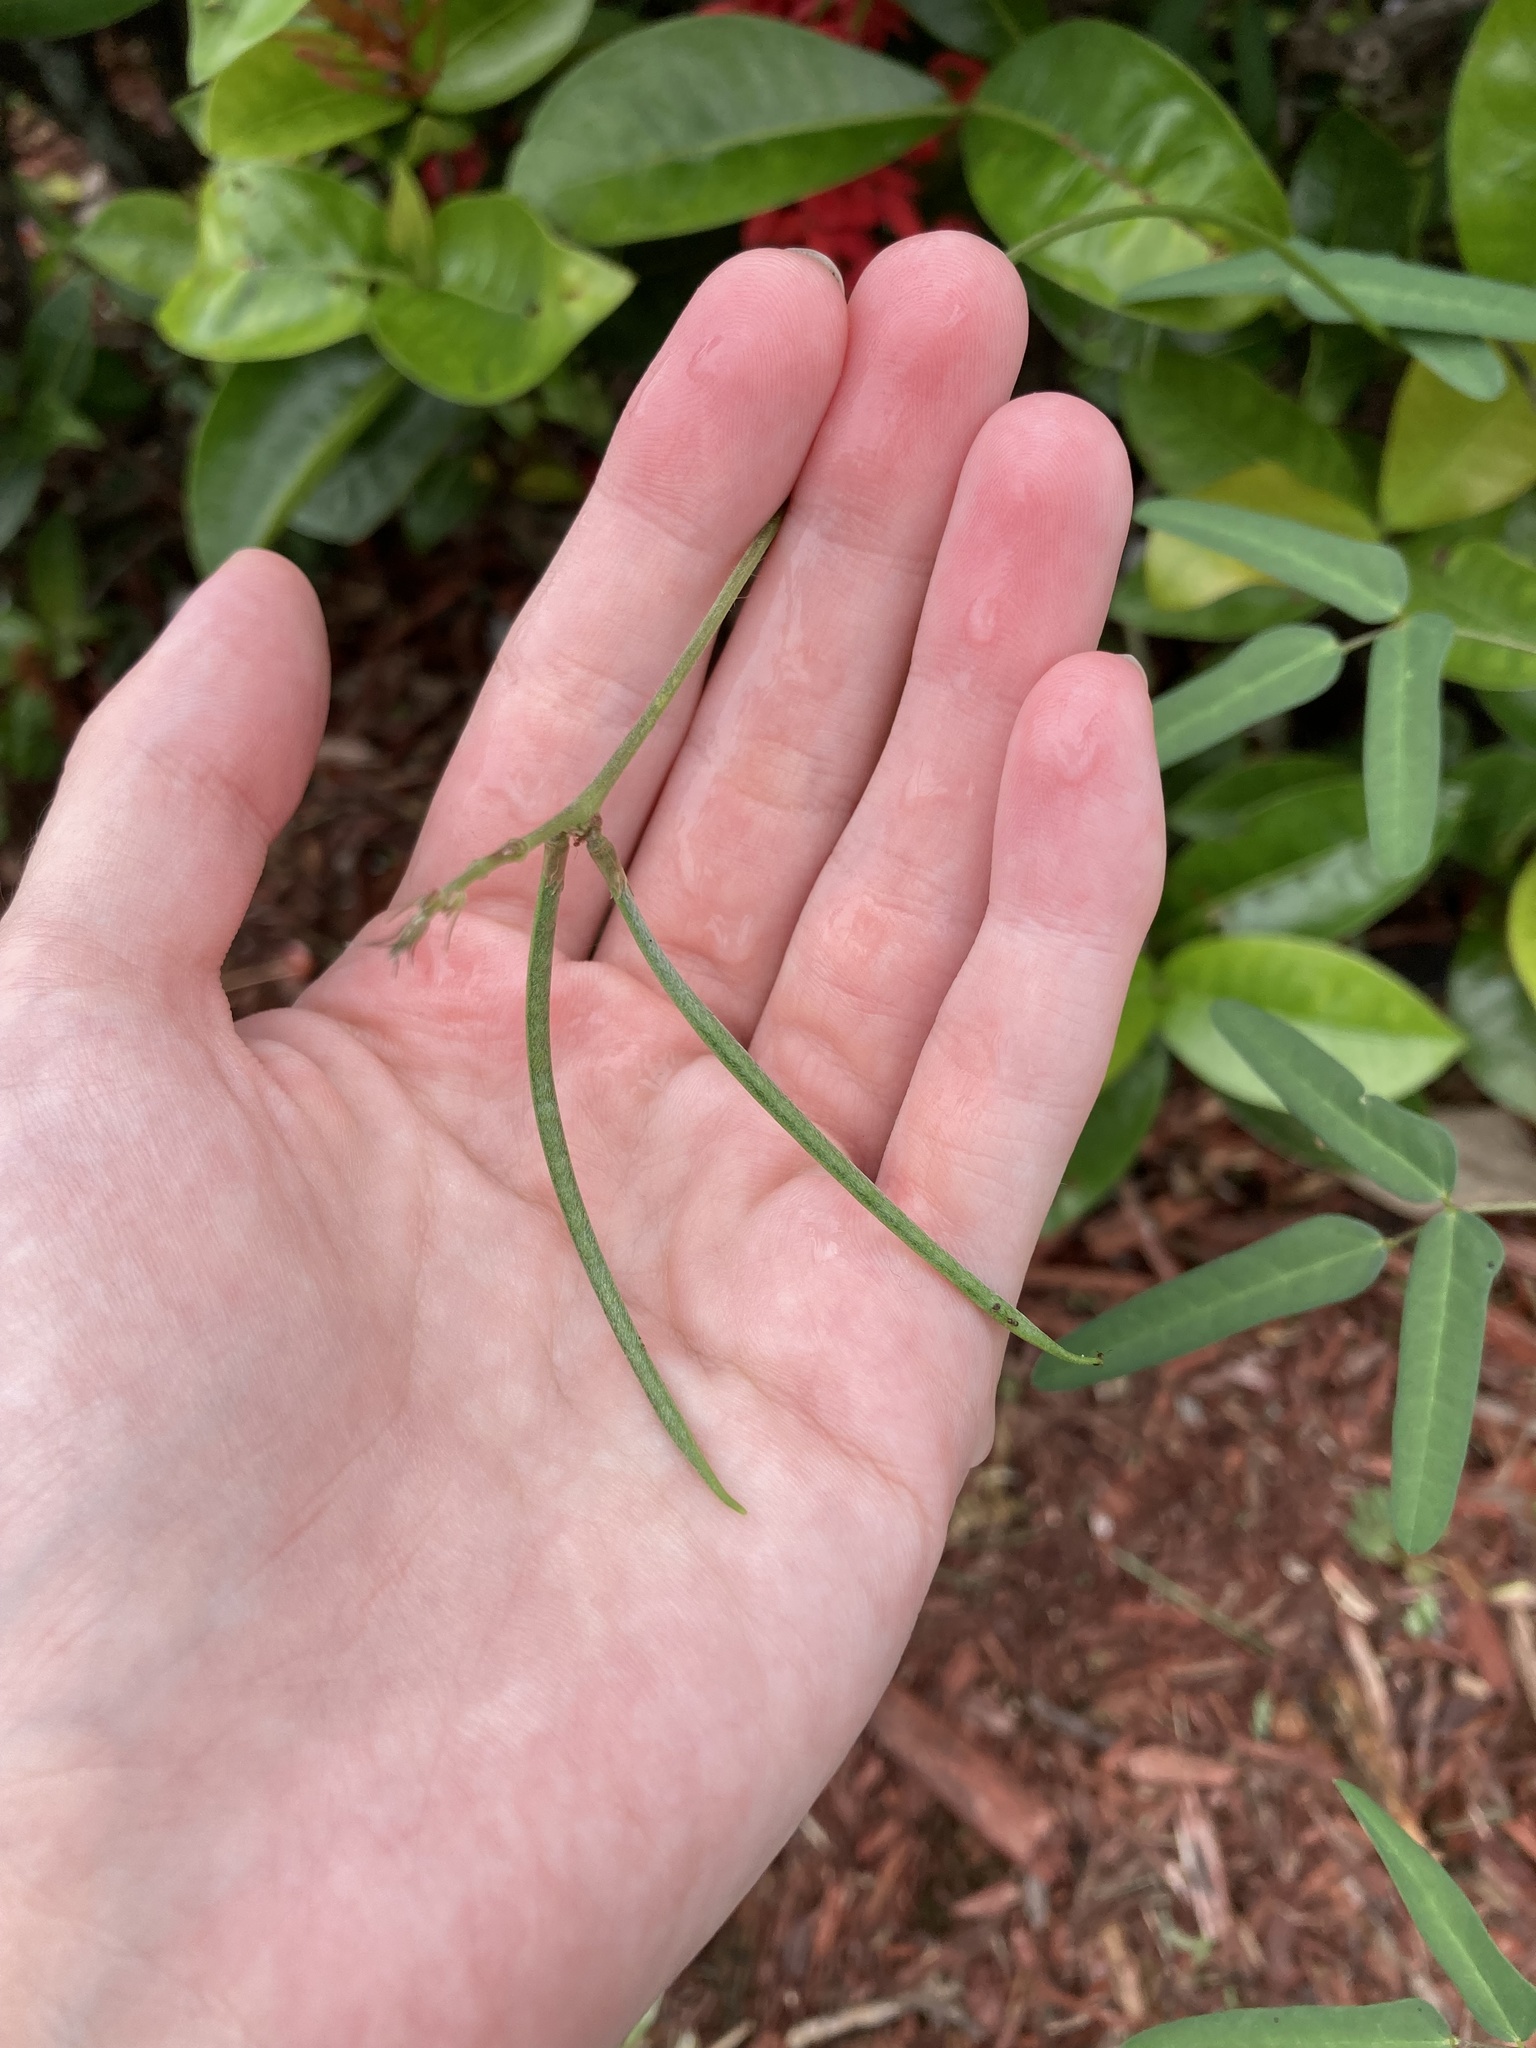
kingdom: Plantae
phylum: Tracheophyta
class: Magnoliopsida
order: Fabales
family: Fabaceae
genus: Macroptilium
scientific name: Macroptilium lathyroides
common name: Wild bushbean
